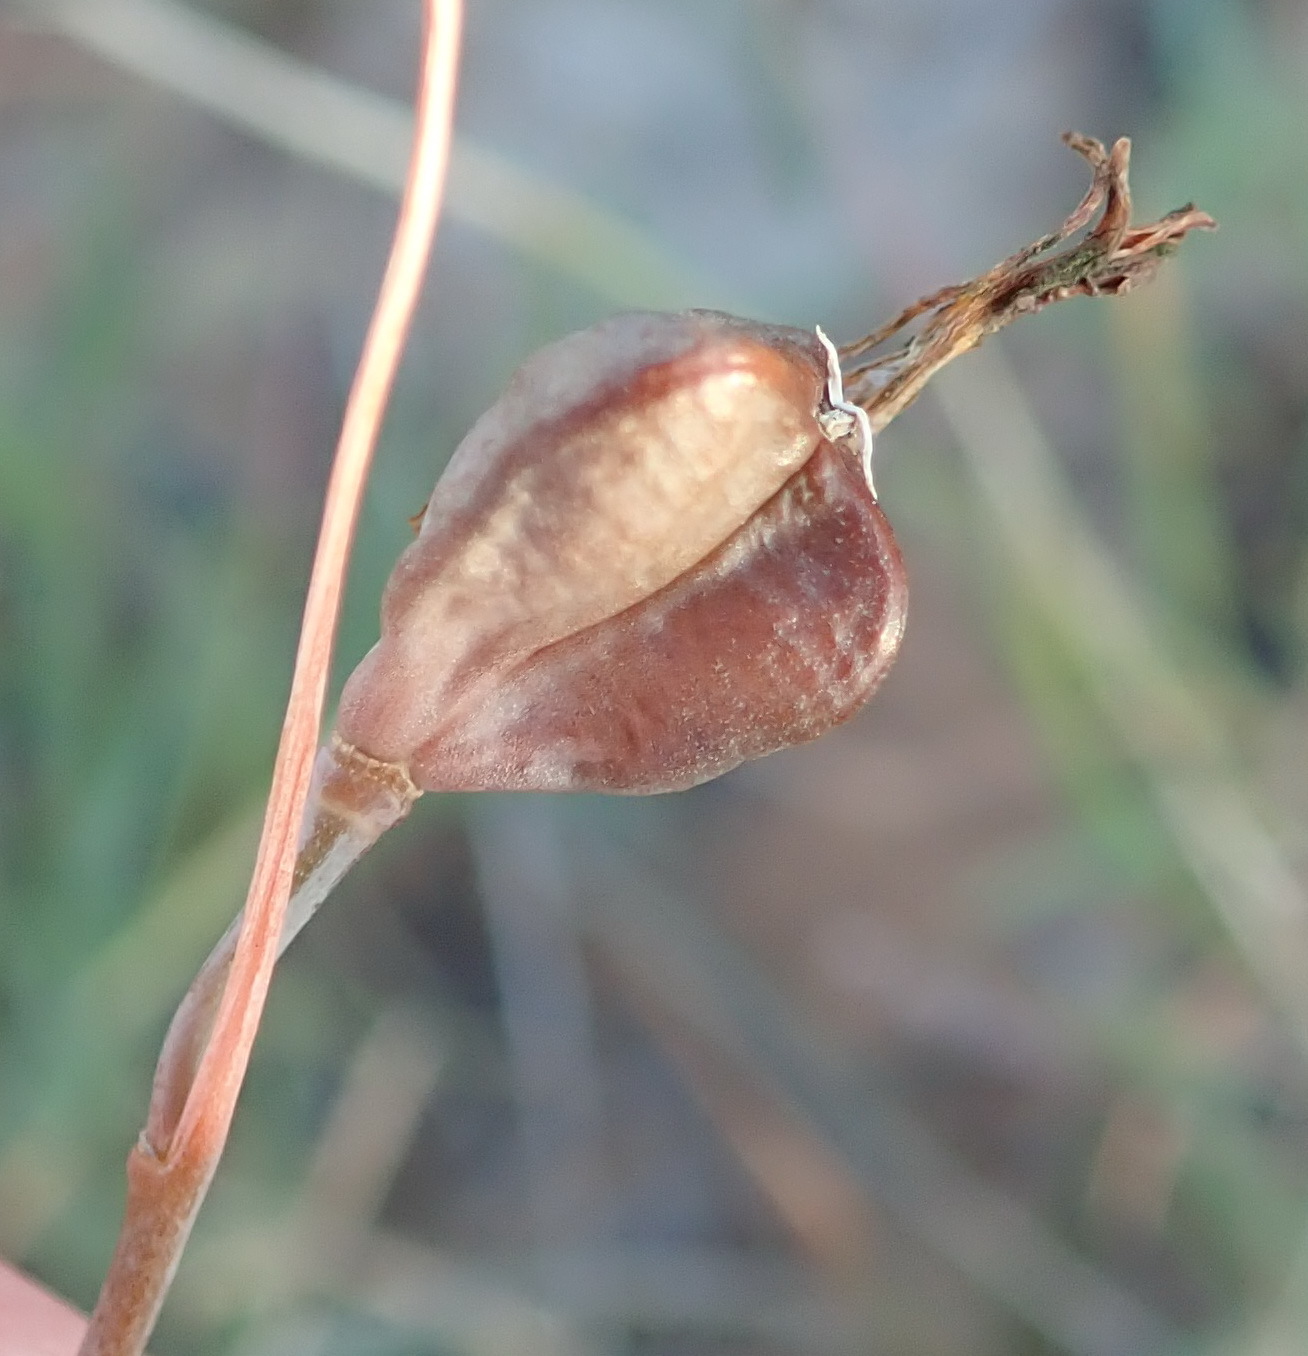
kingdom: Plantae
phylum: Tracheophyta
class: Liliopsida
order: Asparagales
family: Asparagaceae
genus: Dipcadi
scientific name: Dipcadi brevifolium
